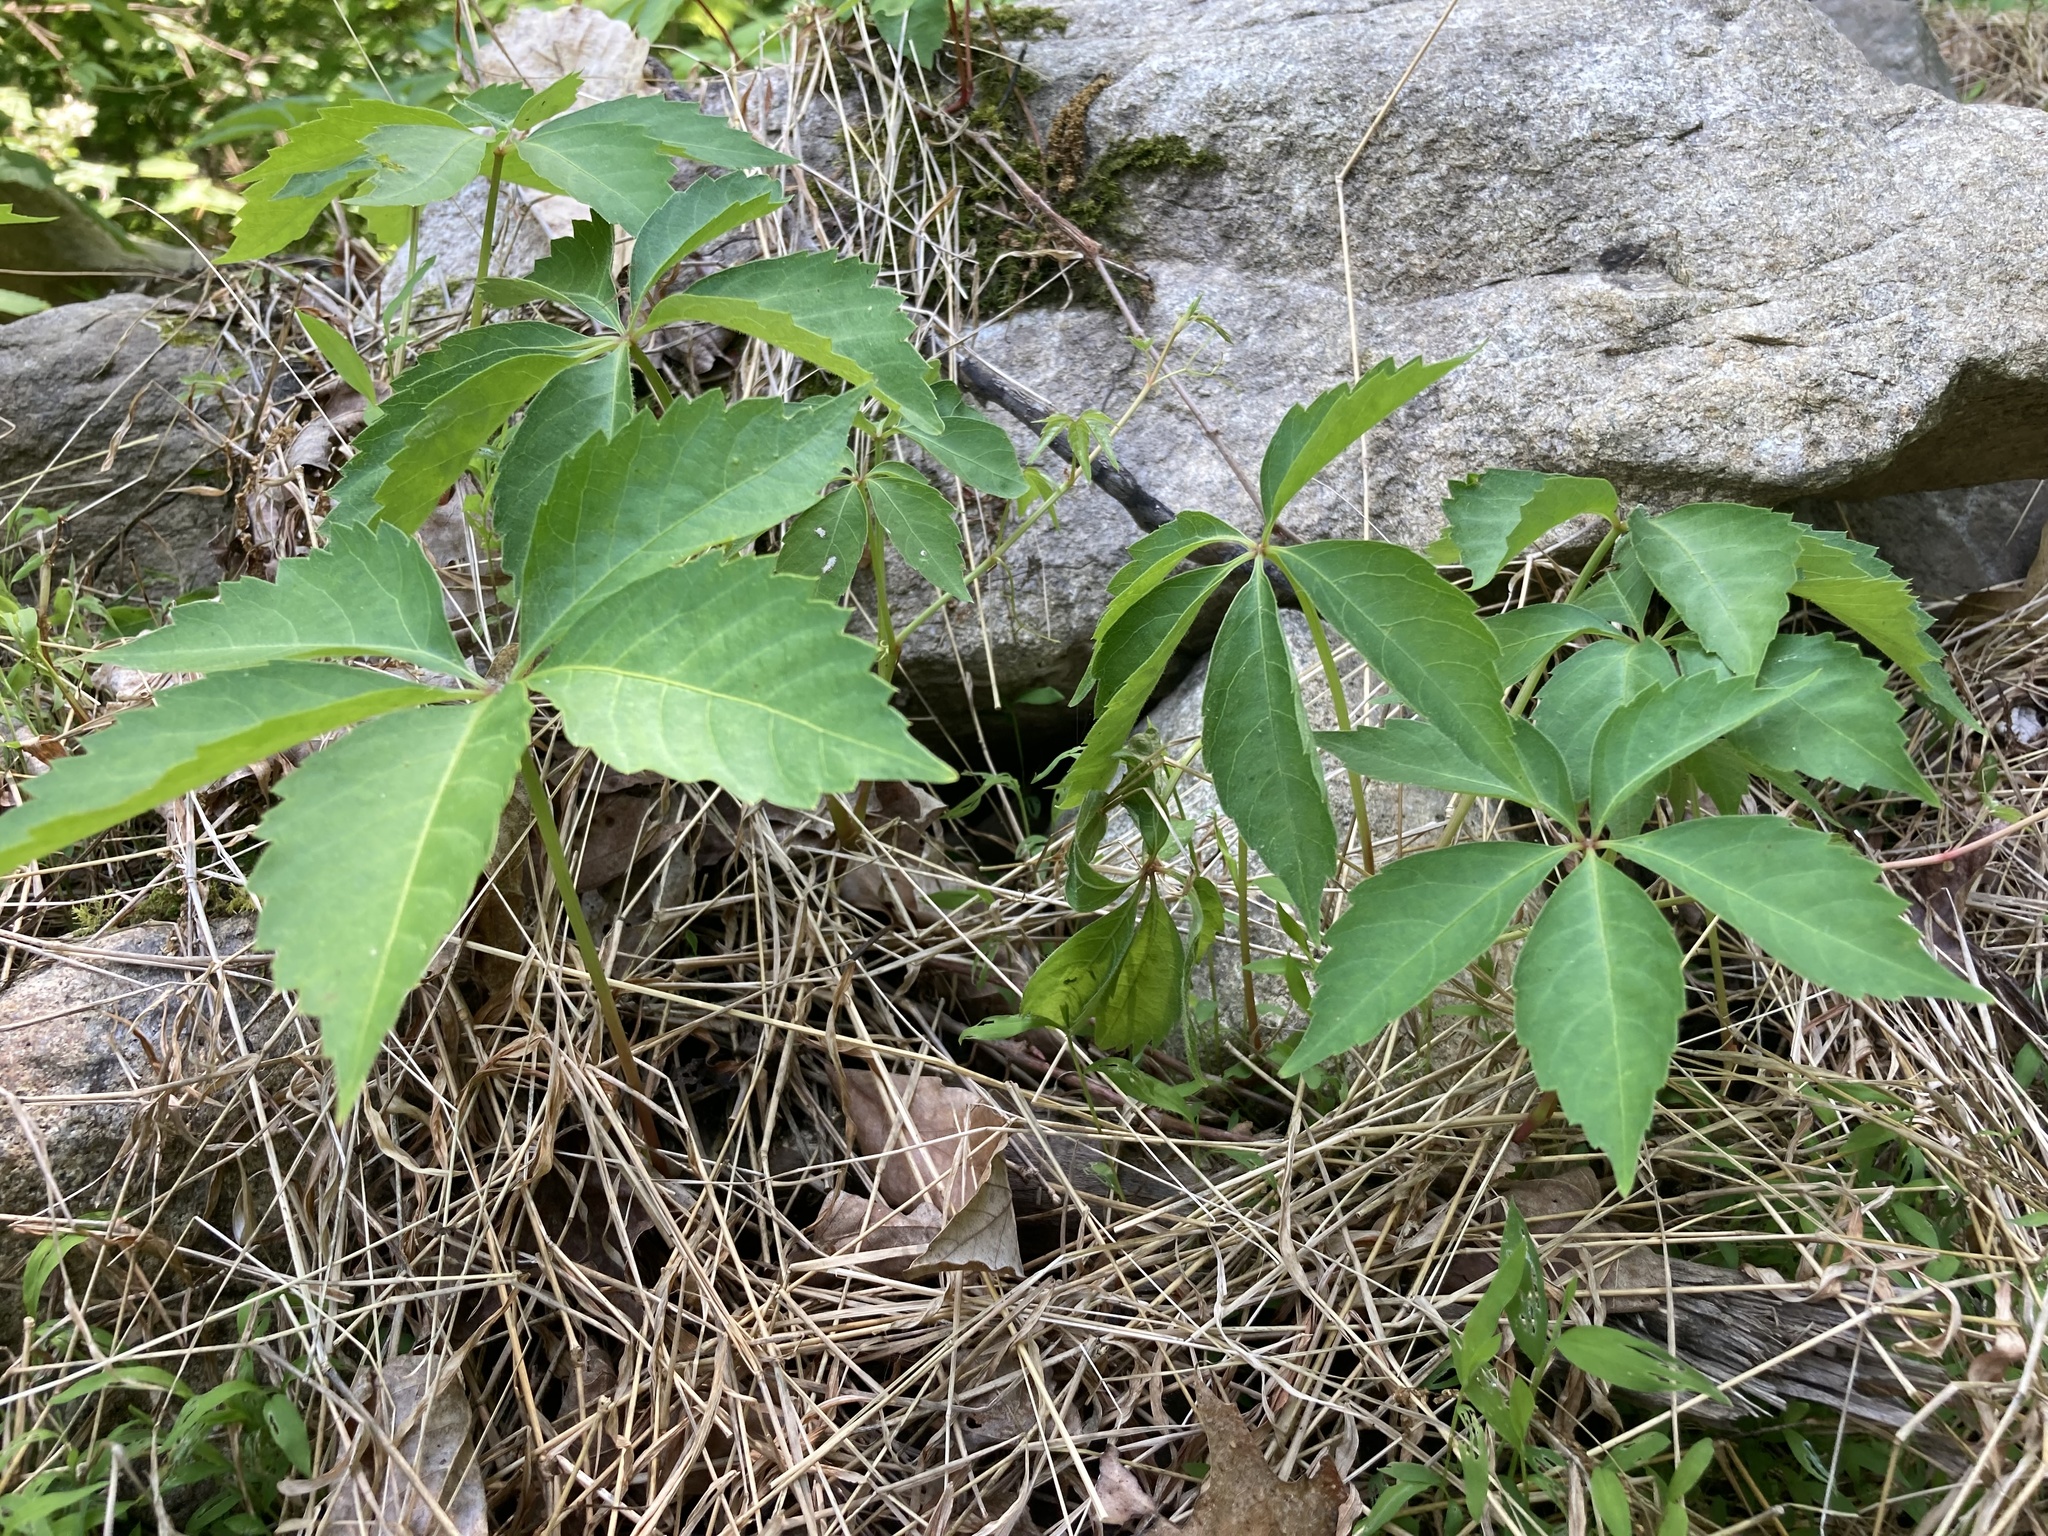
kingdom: Plantae
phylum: Tracheophyta
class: Magnoliopsida
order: Vitales
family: Vitaceae
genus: Parthenocissus
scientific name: Parthenocissus quinquefolia
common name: Virginia-creeper
